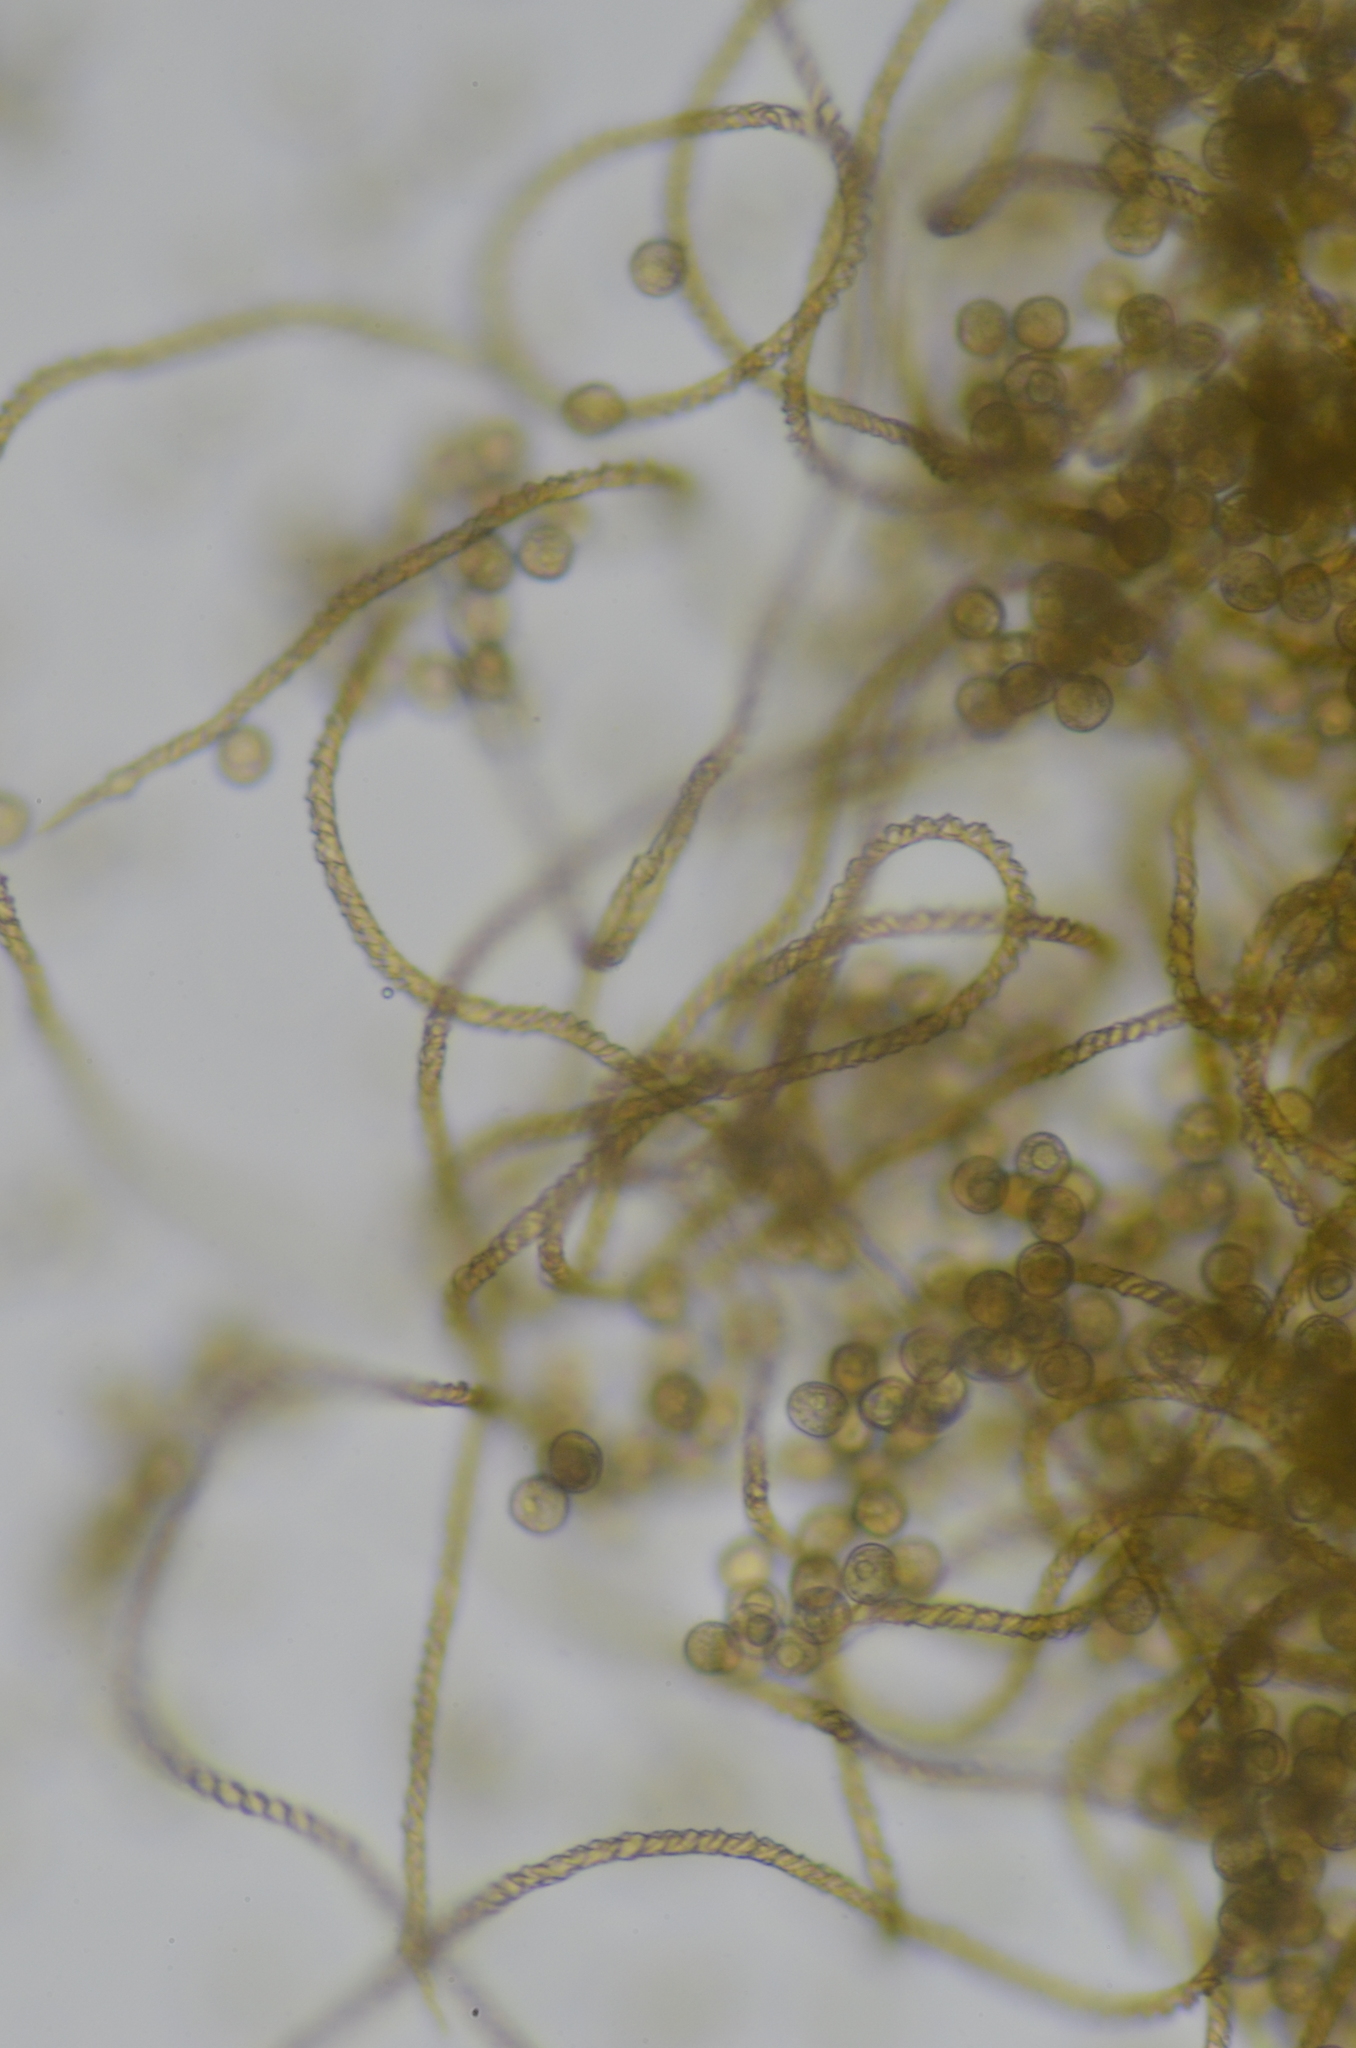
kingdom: Protozoa
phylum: Mycetozoa
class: Myxomycetes
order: Trichiales
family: Trichiaceae
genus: Trichia
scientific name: Trichia varia
